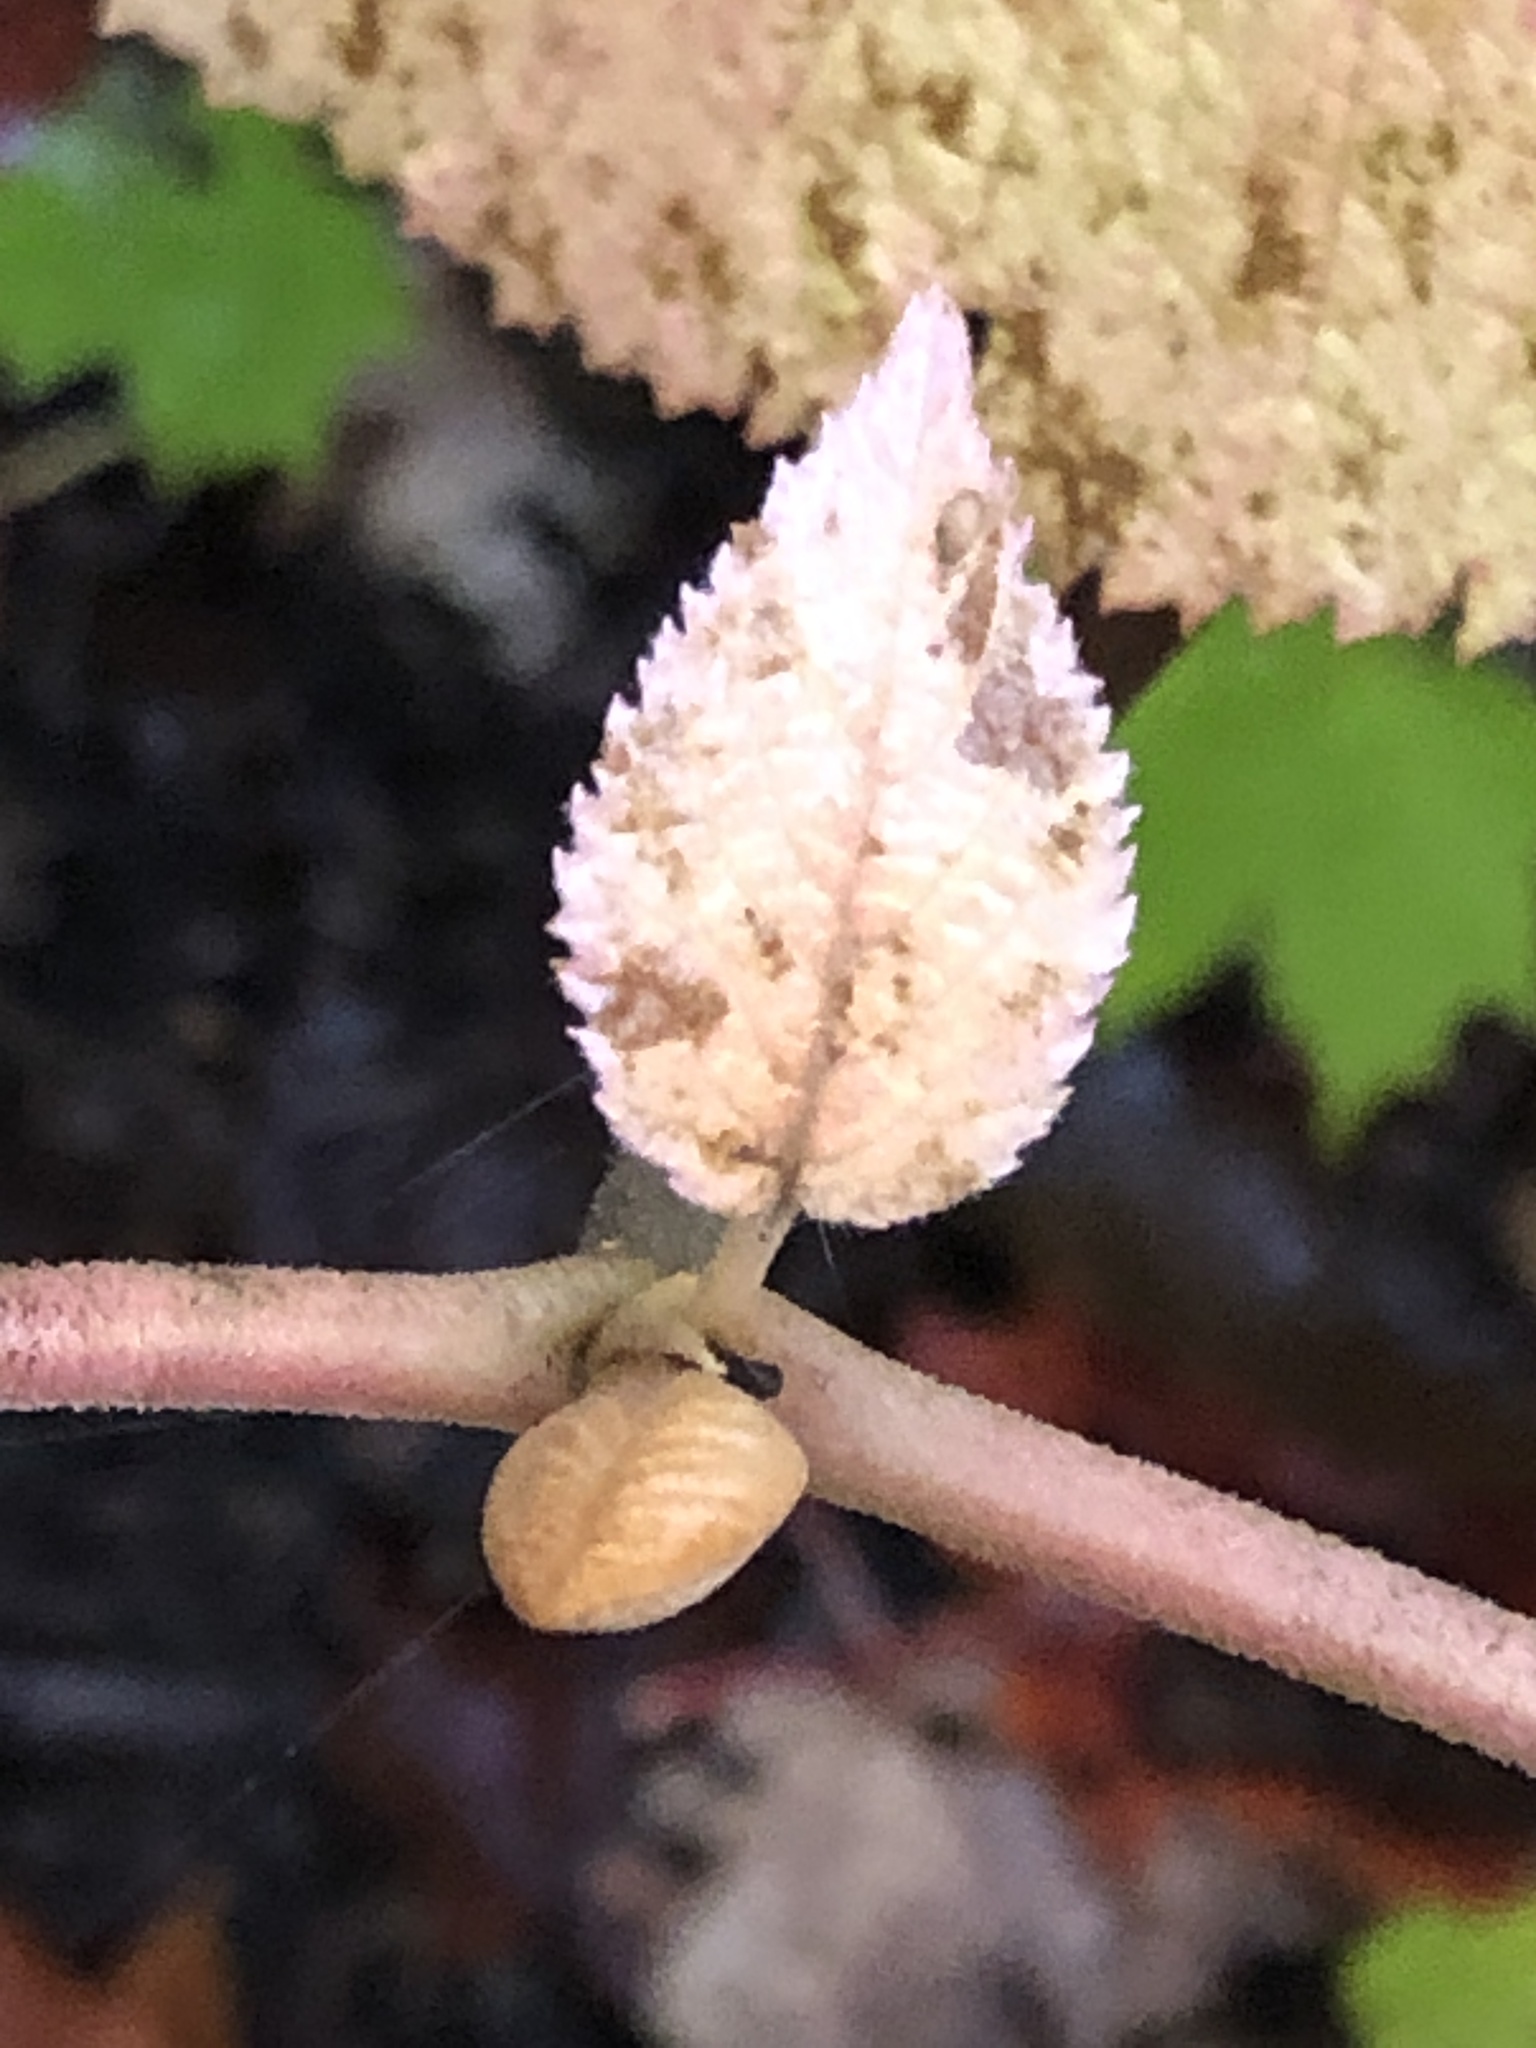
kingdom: Plantae
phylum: Tracheophyta
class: Magnoliopsida
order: Dipsacales
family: Viburnaceae
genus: Viburnum
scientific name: Viburnum lantanoides
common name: Hobblebush
